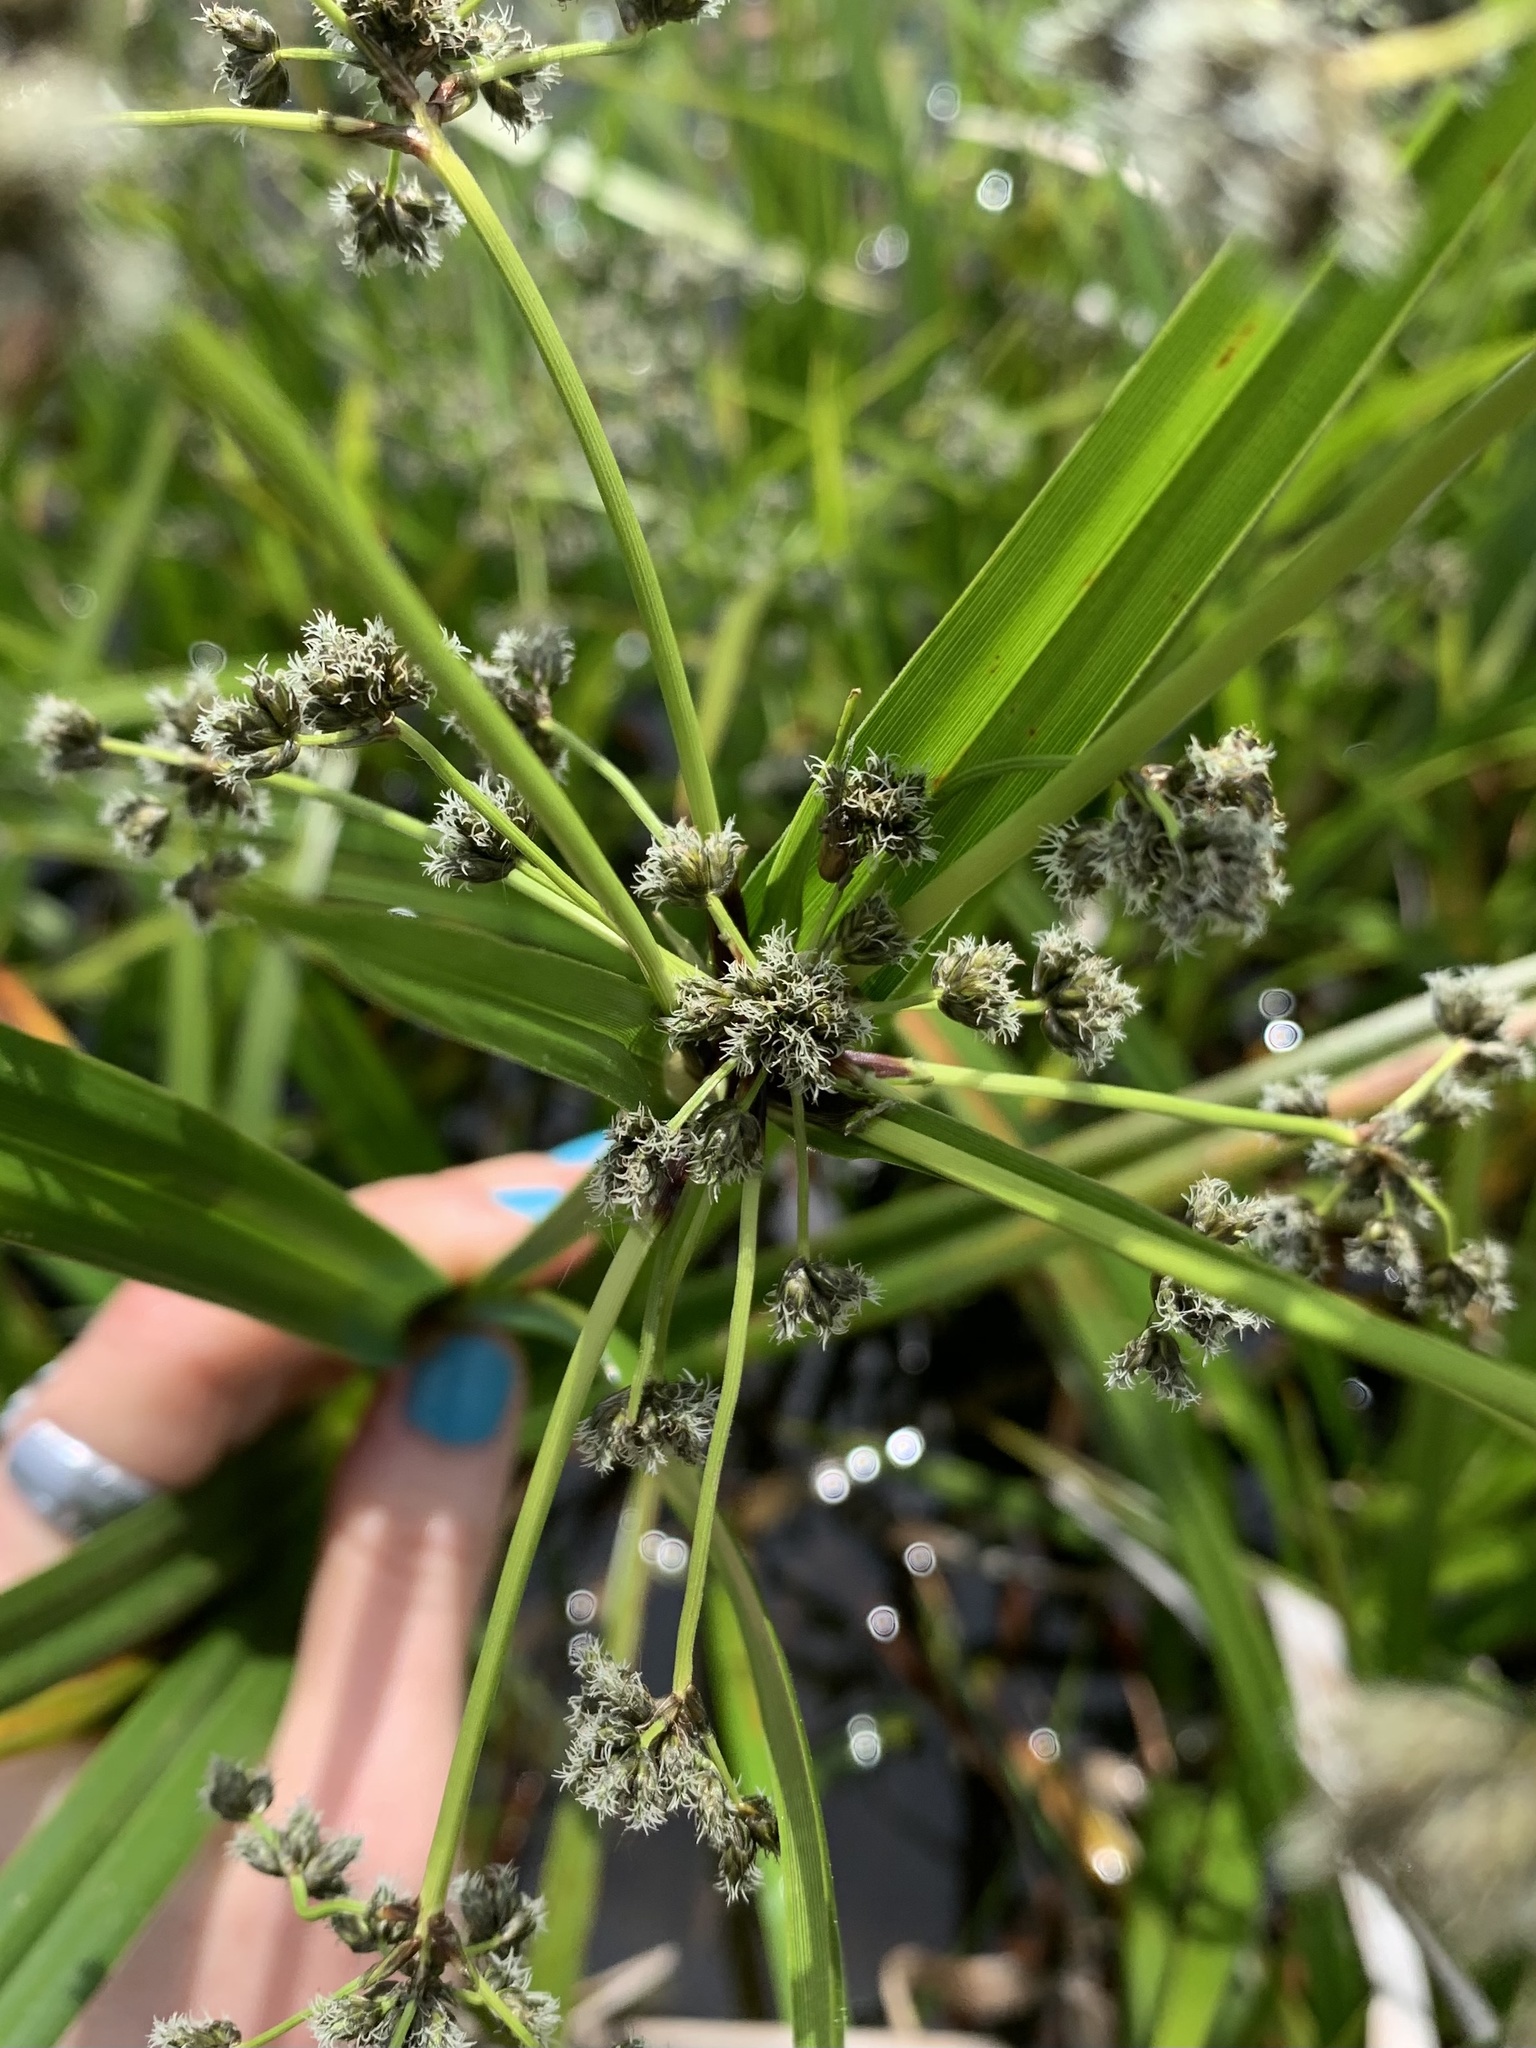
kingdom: Plantae
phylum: Tracheophyta
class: Liliopsida
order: Poales
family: Cyperaceae
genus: Scirpus
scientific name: Scirpus microcarpus
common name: Panicled bulrush
